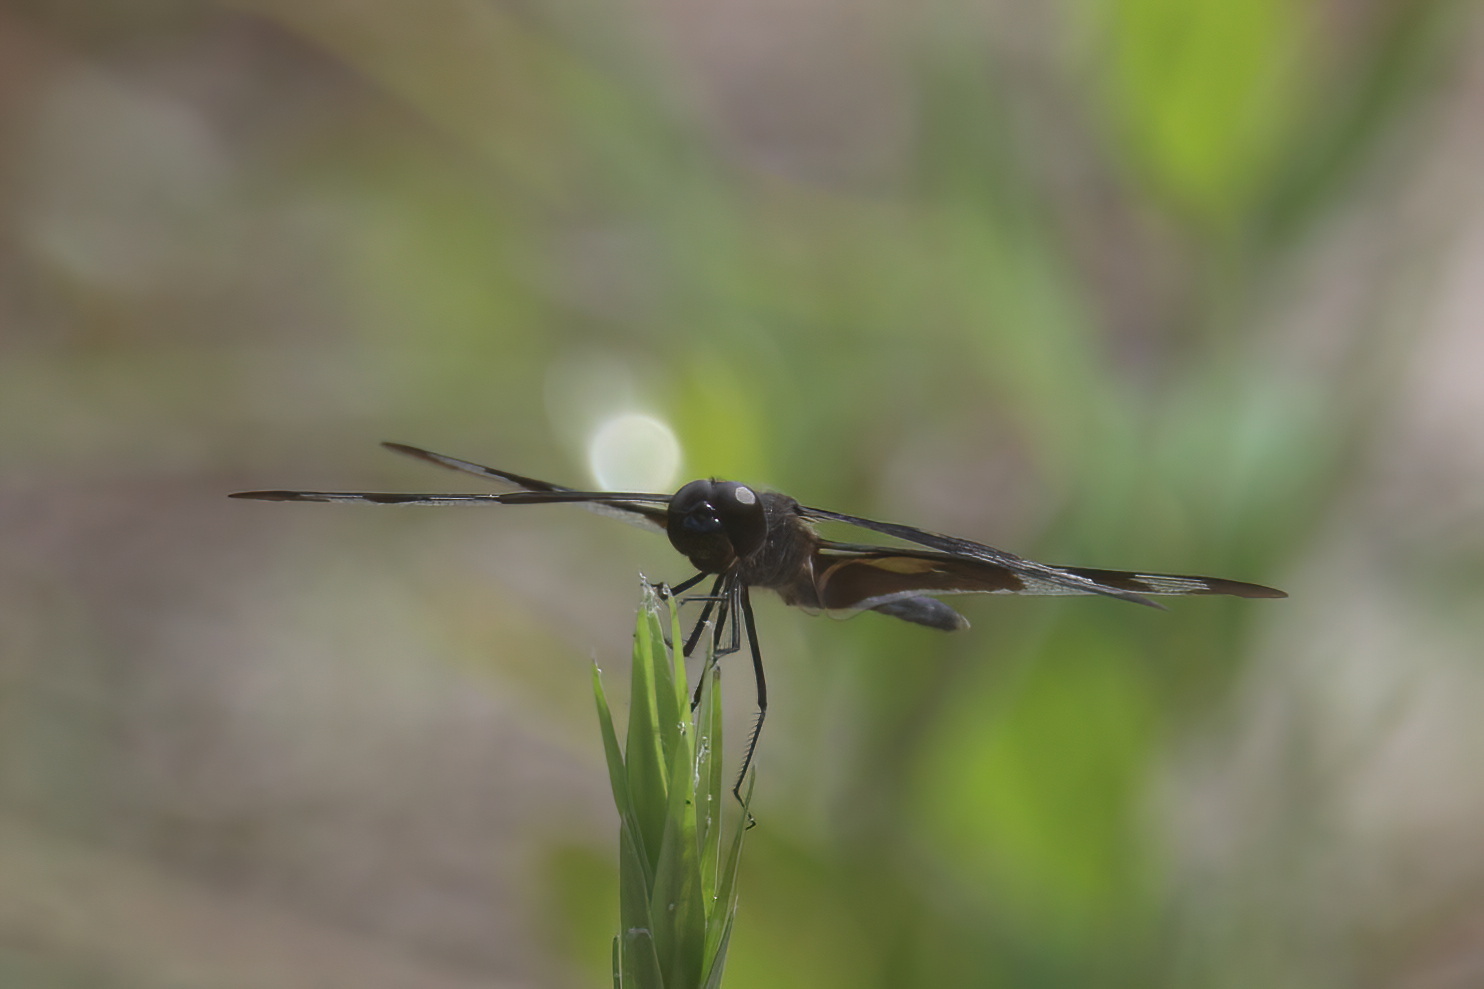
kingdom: Animalia
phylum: Arthropoda
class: Insecta
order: Odonata
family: Libellulidae
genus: Celithemis
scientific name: Celithemis fasciata
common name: Banded pennant
